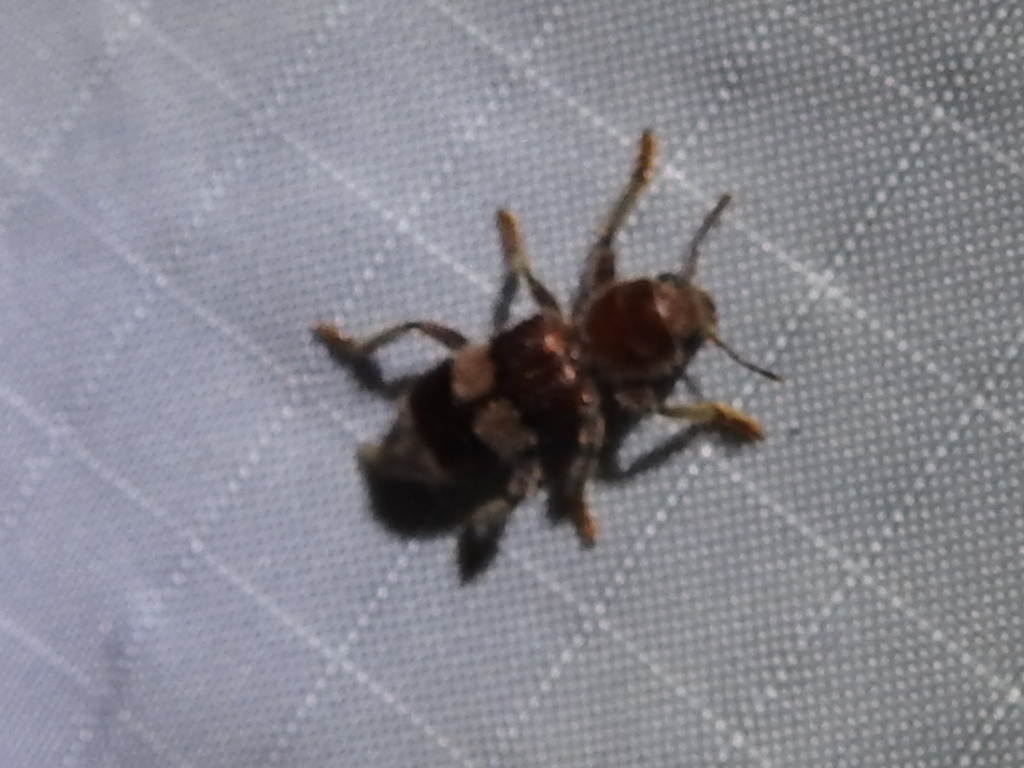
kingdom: Animalia
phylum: Arthropoda
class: Insecta
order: Coleoptera
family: Cleridae
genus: Enoclerus
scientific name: Enoclerus quadrisignatus
